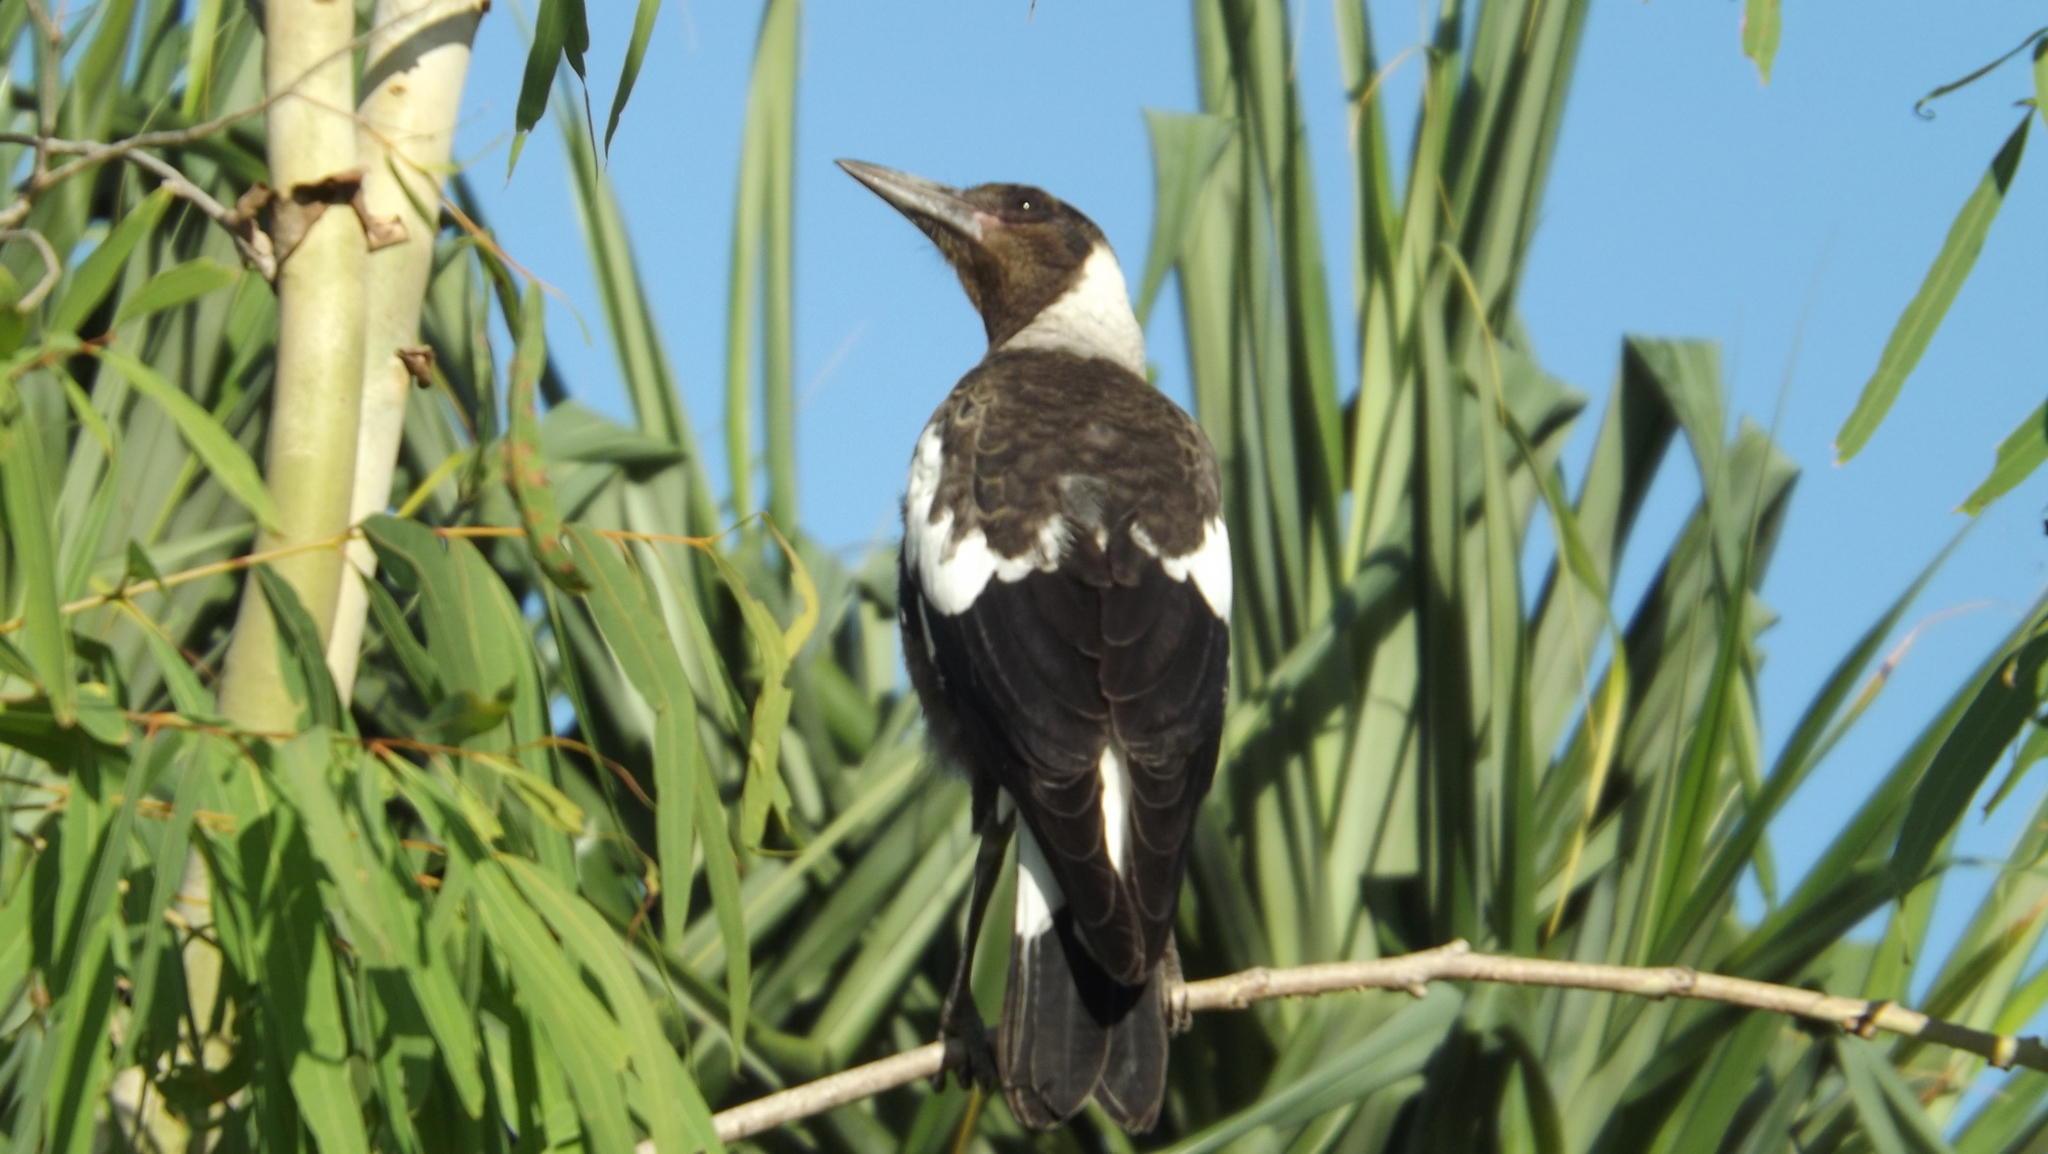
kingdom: Animalia
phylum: Chordata
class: Aves
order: Passeriformes
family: Cracticidae
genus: Gymnorhina
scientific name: Gymnorhina tibicen
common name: Australian magpie
